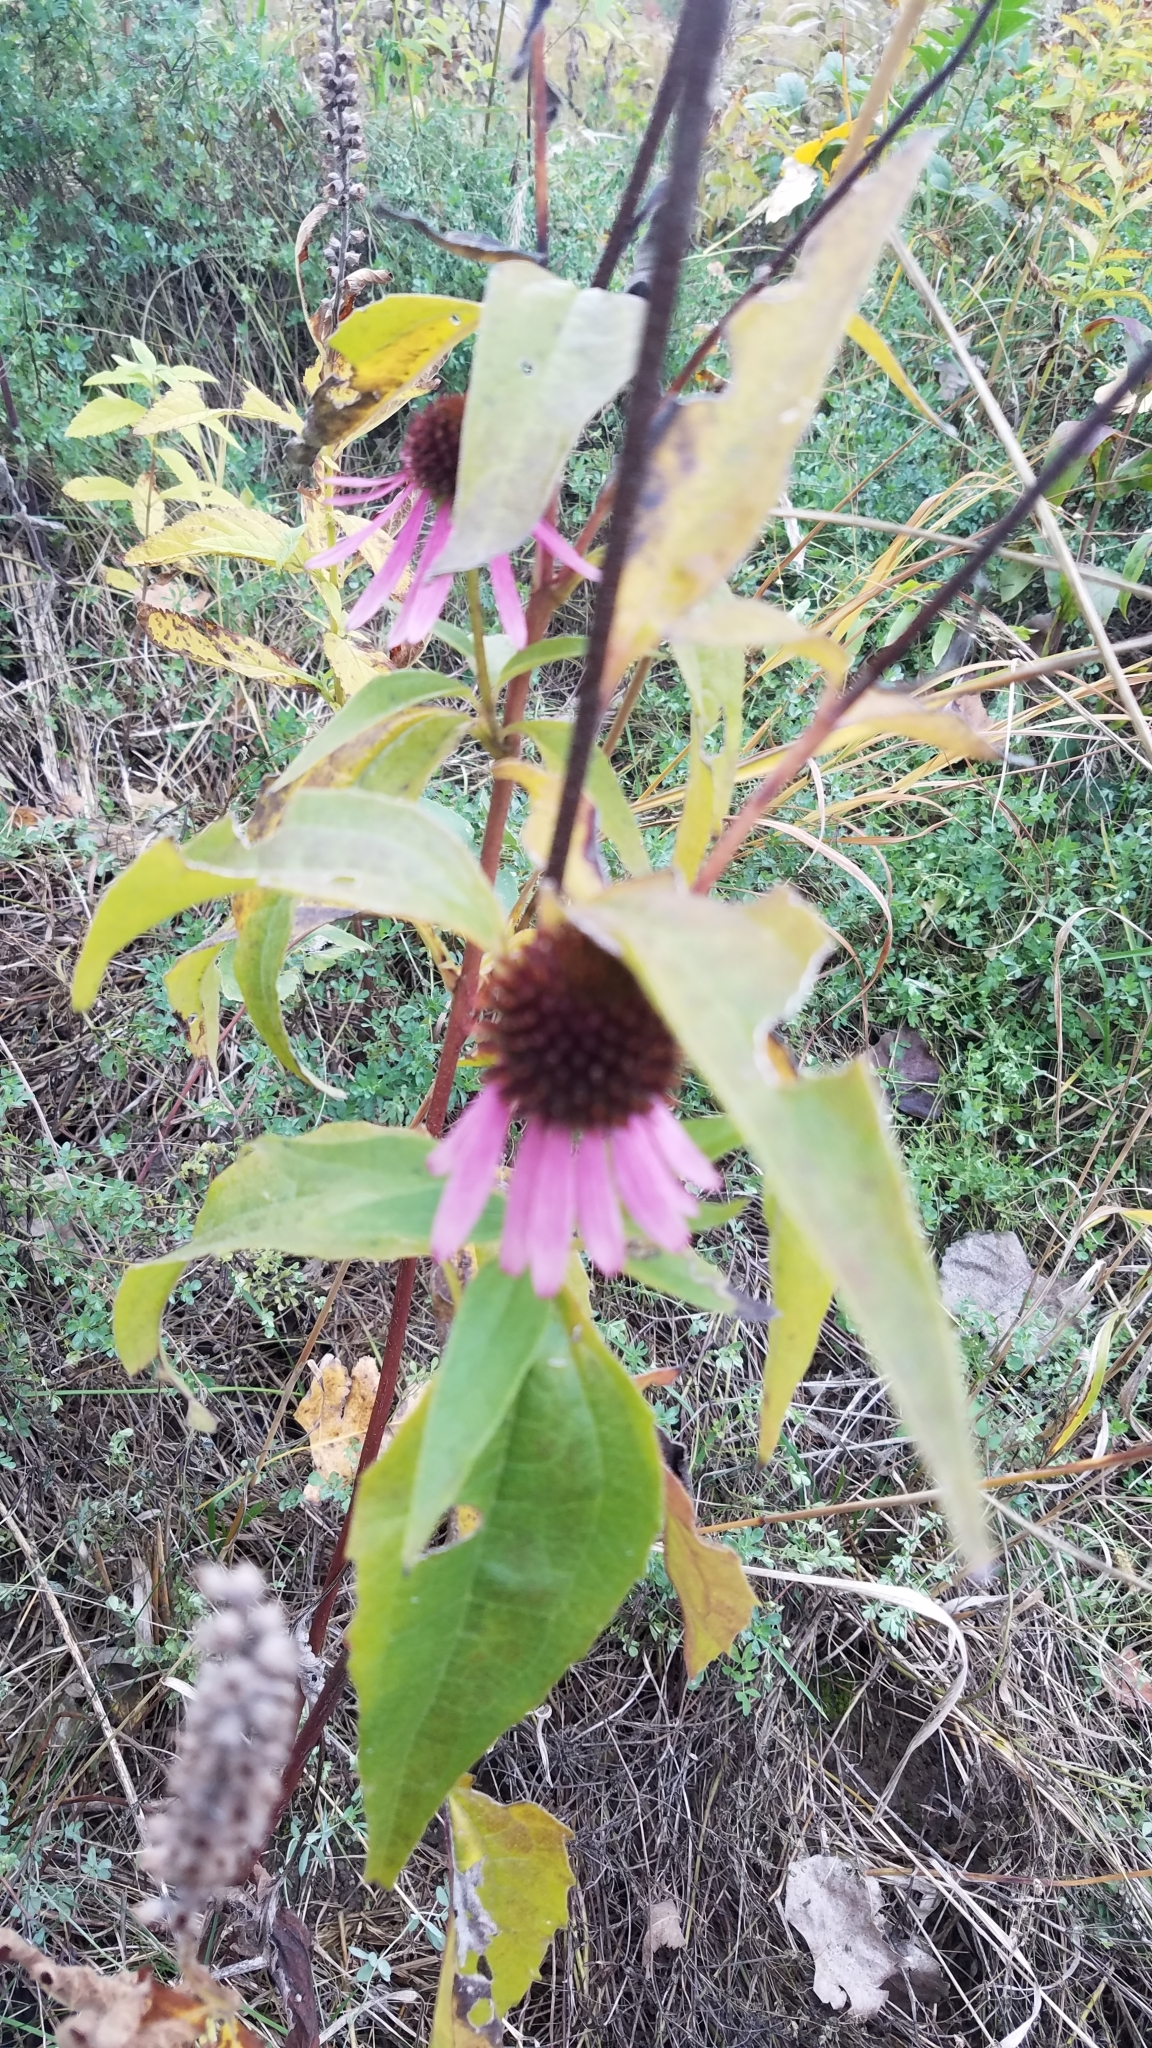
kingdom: Plantae
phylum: Tracheophyta
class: Magnoliopsida
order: Asterales
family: Asteraceae
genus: Echinacea
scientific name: Echinacea purpurea
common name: Broad-leaved purple coneflower
